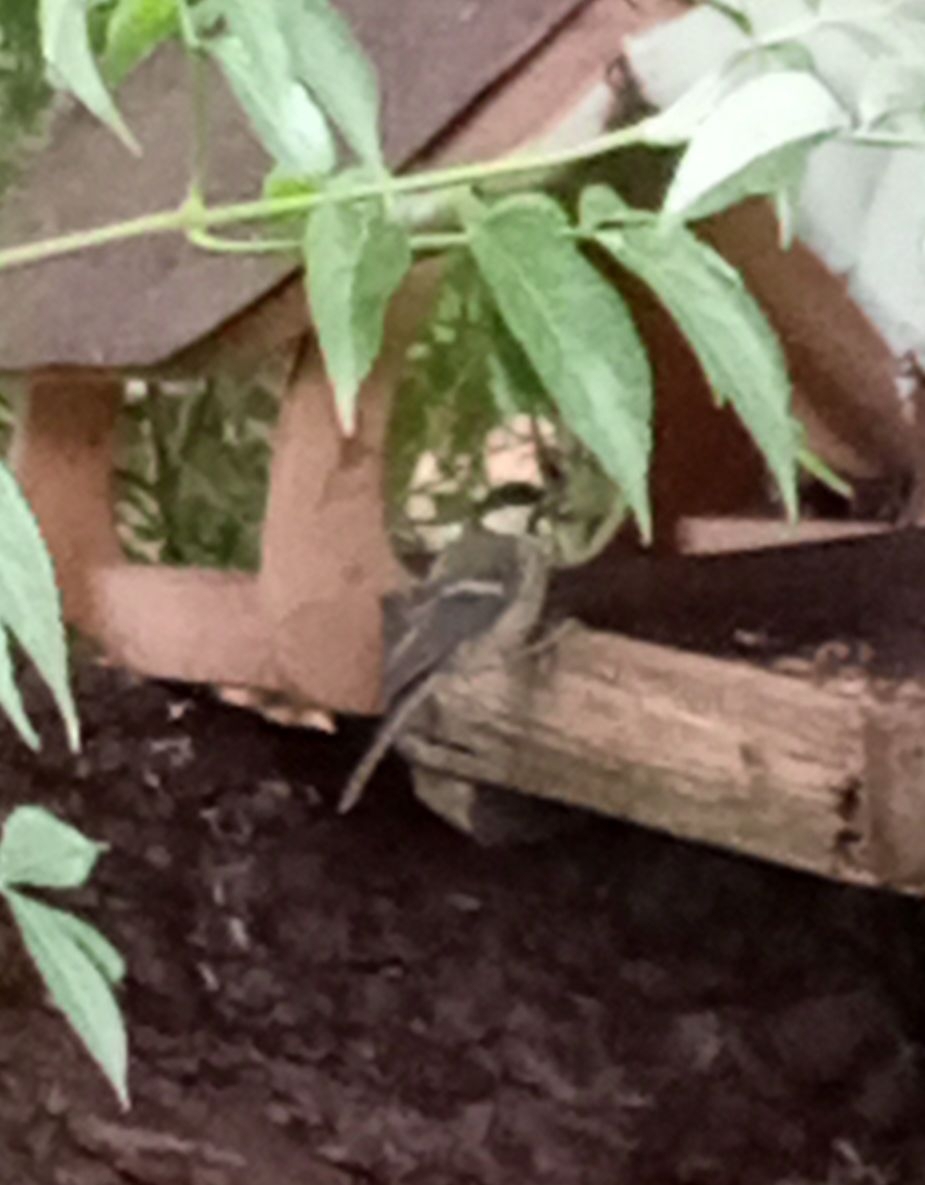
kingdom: Animalia
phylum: Chordata
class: Aves
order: Passeriformes
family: Paridae
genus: Parus
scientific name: Parus major
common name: Great tit
